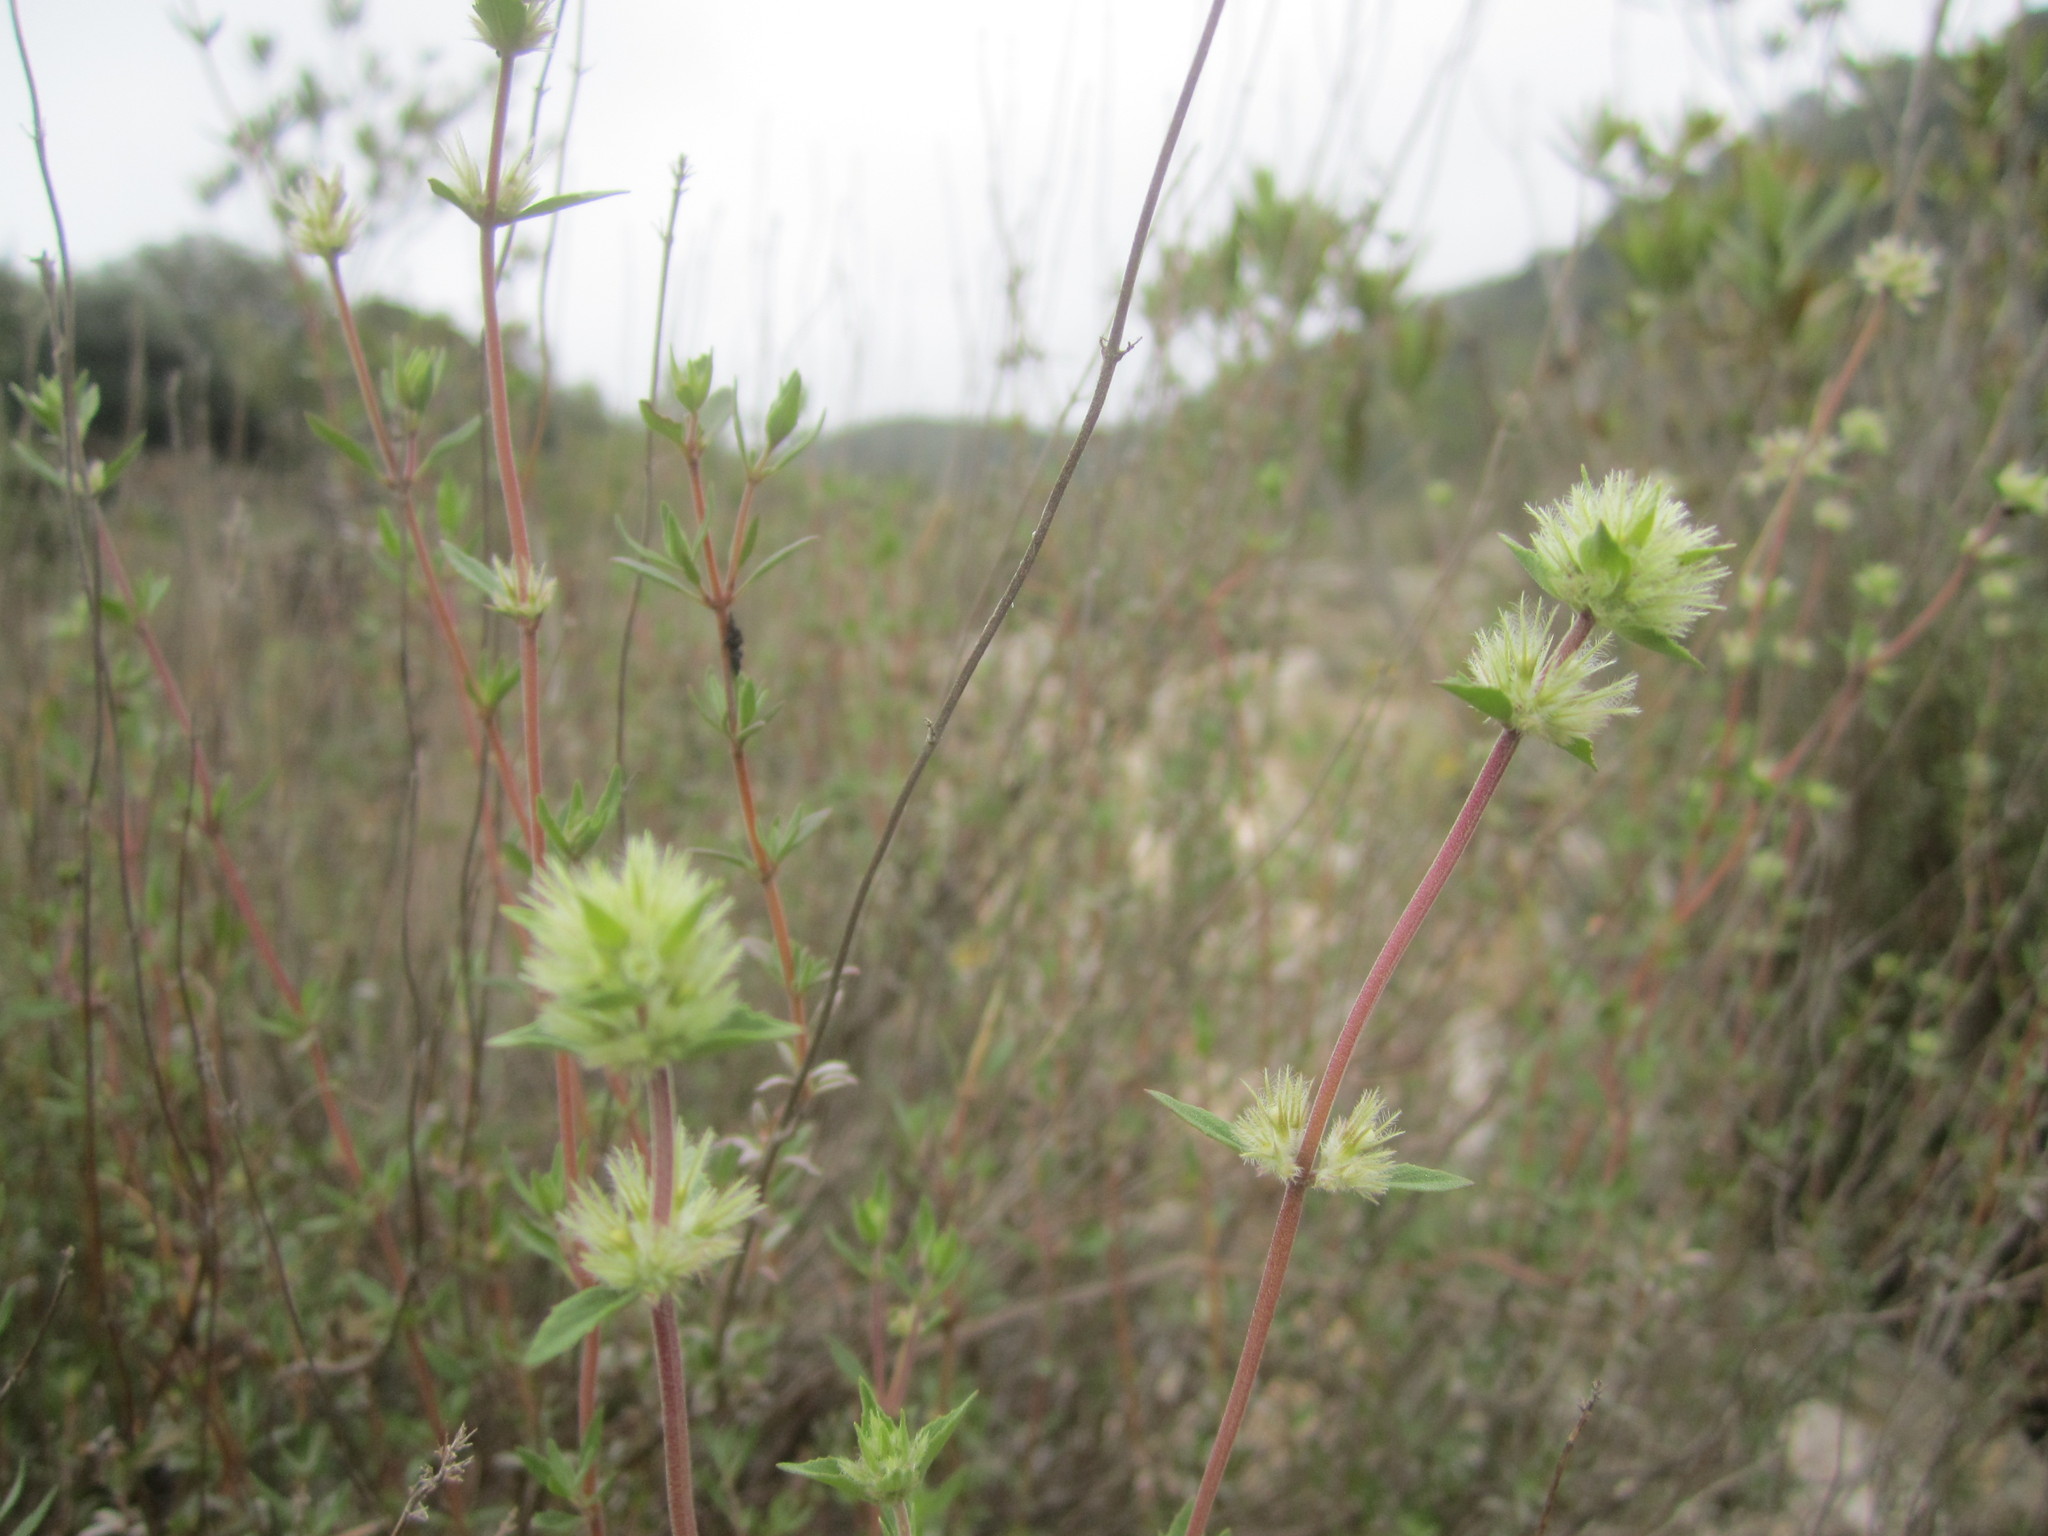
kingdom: Plantae
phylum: Tracheophyta
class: Magnoliopsida
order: Lamiales
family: Lamiaceae
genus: Thymus
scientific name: Thymus mastichina
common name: Mastic thyme
